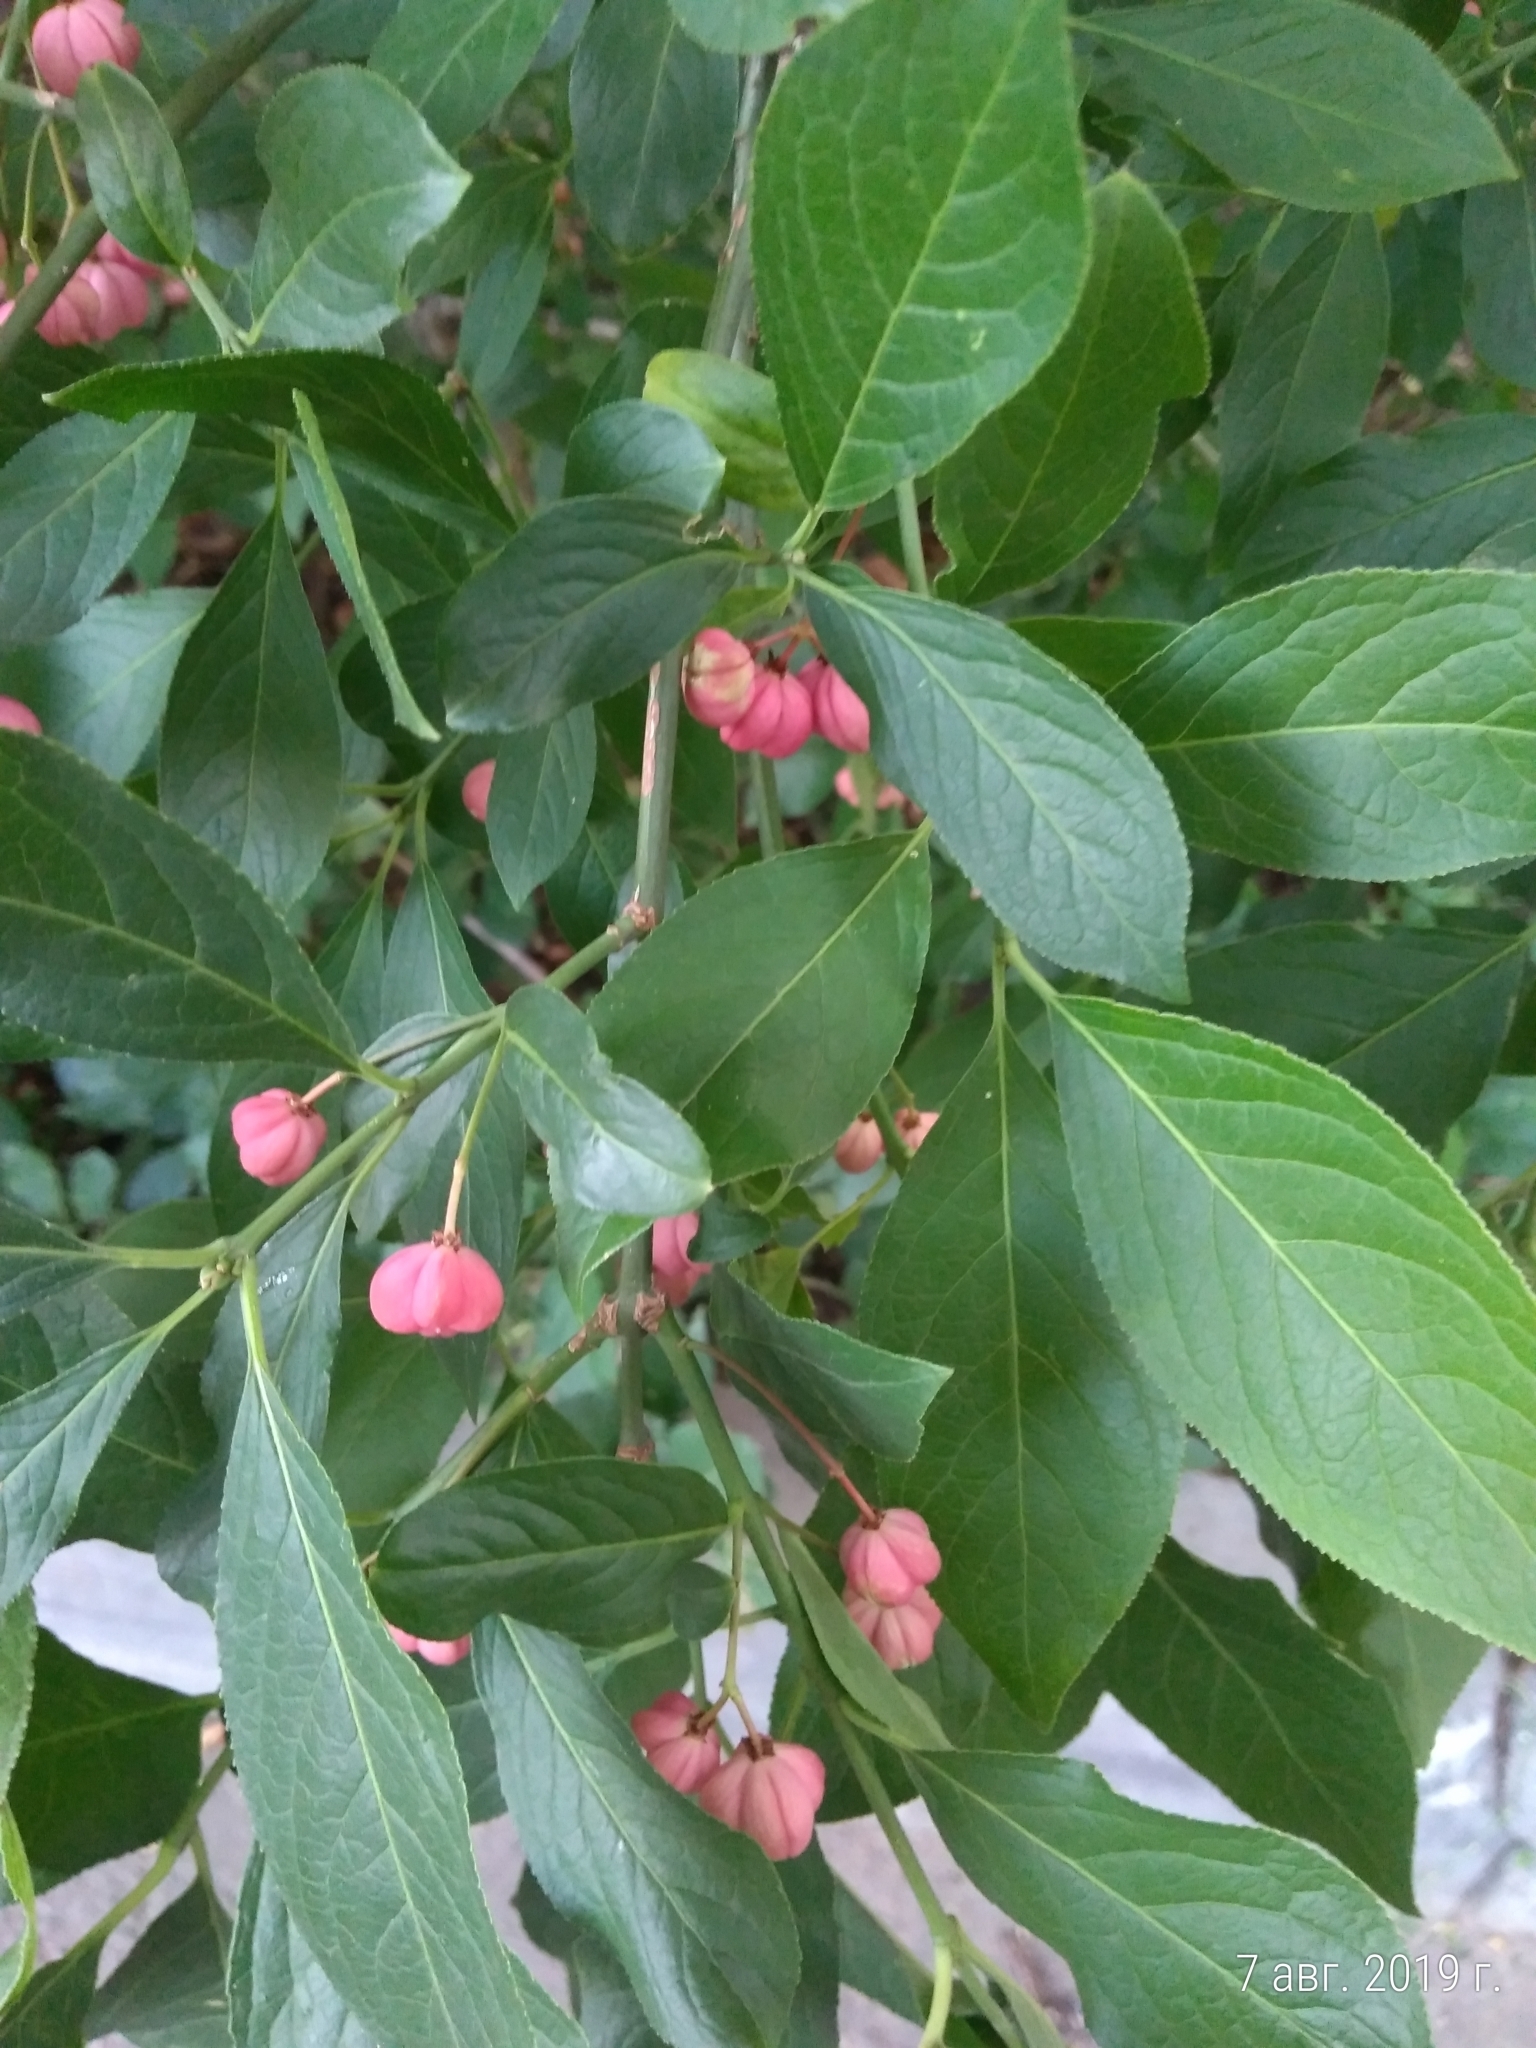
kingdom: Plantae
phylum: Tracheophyta
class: Magnoliopsida
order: Celastrales
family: Celastraceae
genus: Euonymus
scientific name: Euonymus europaeus
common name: Spindle
